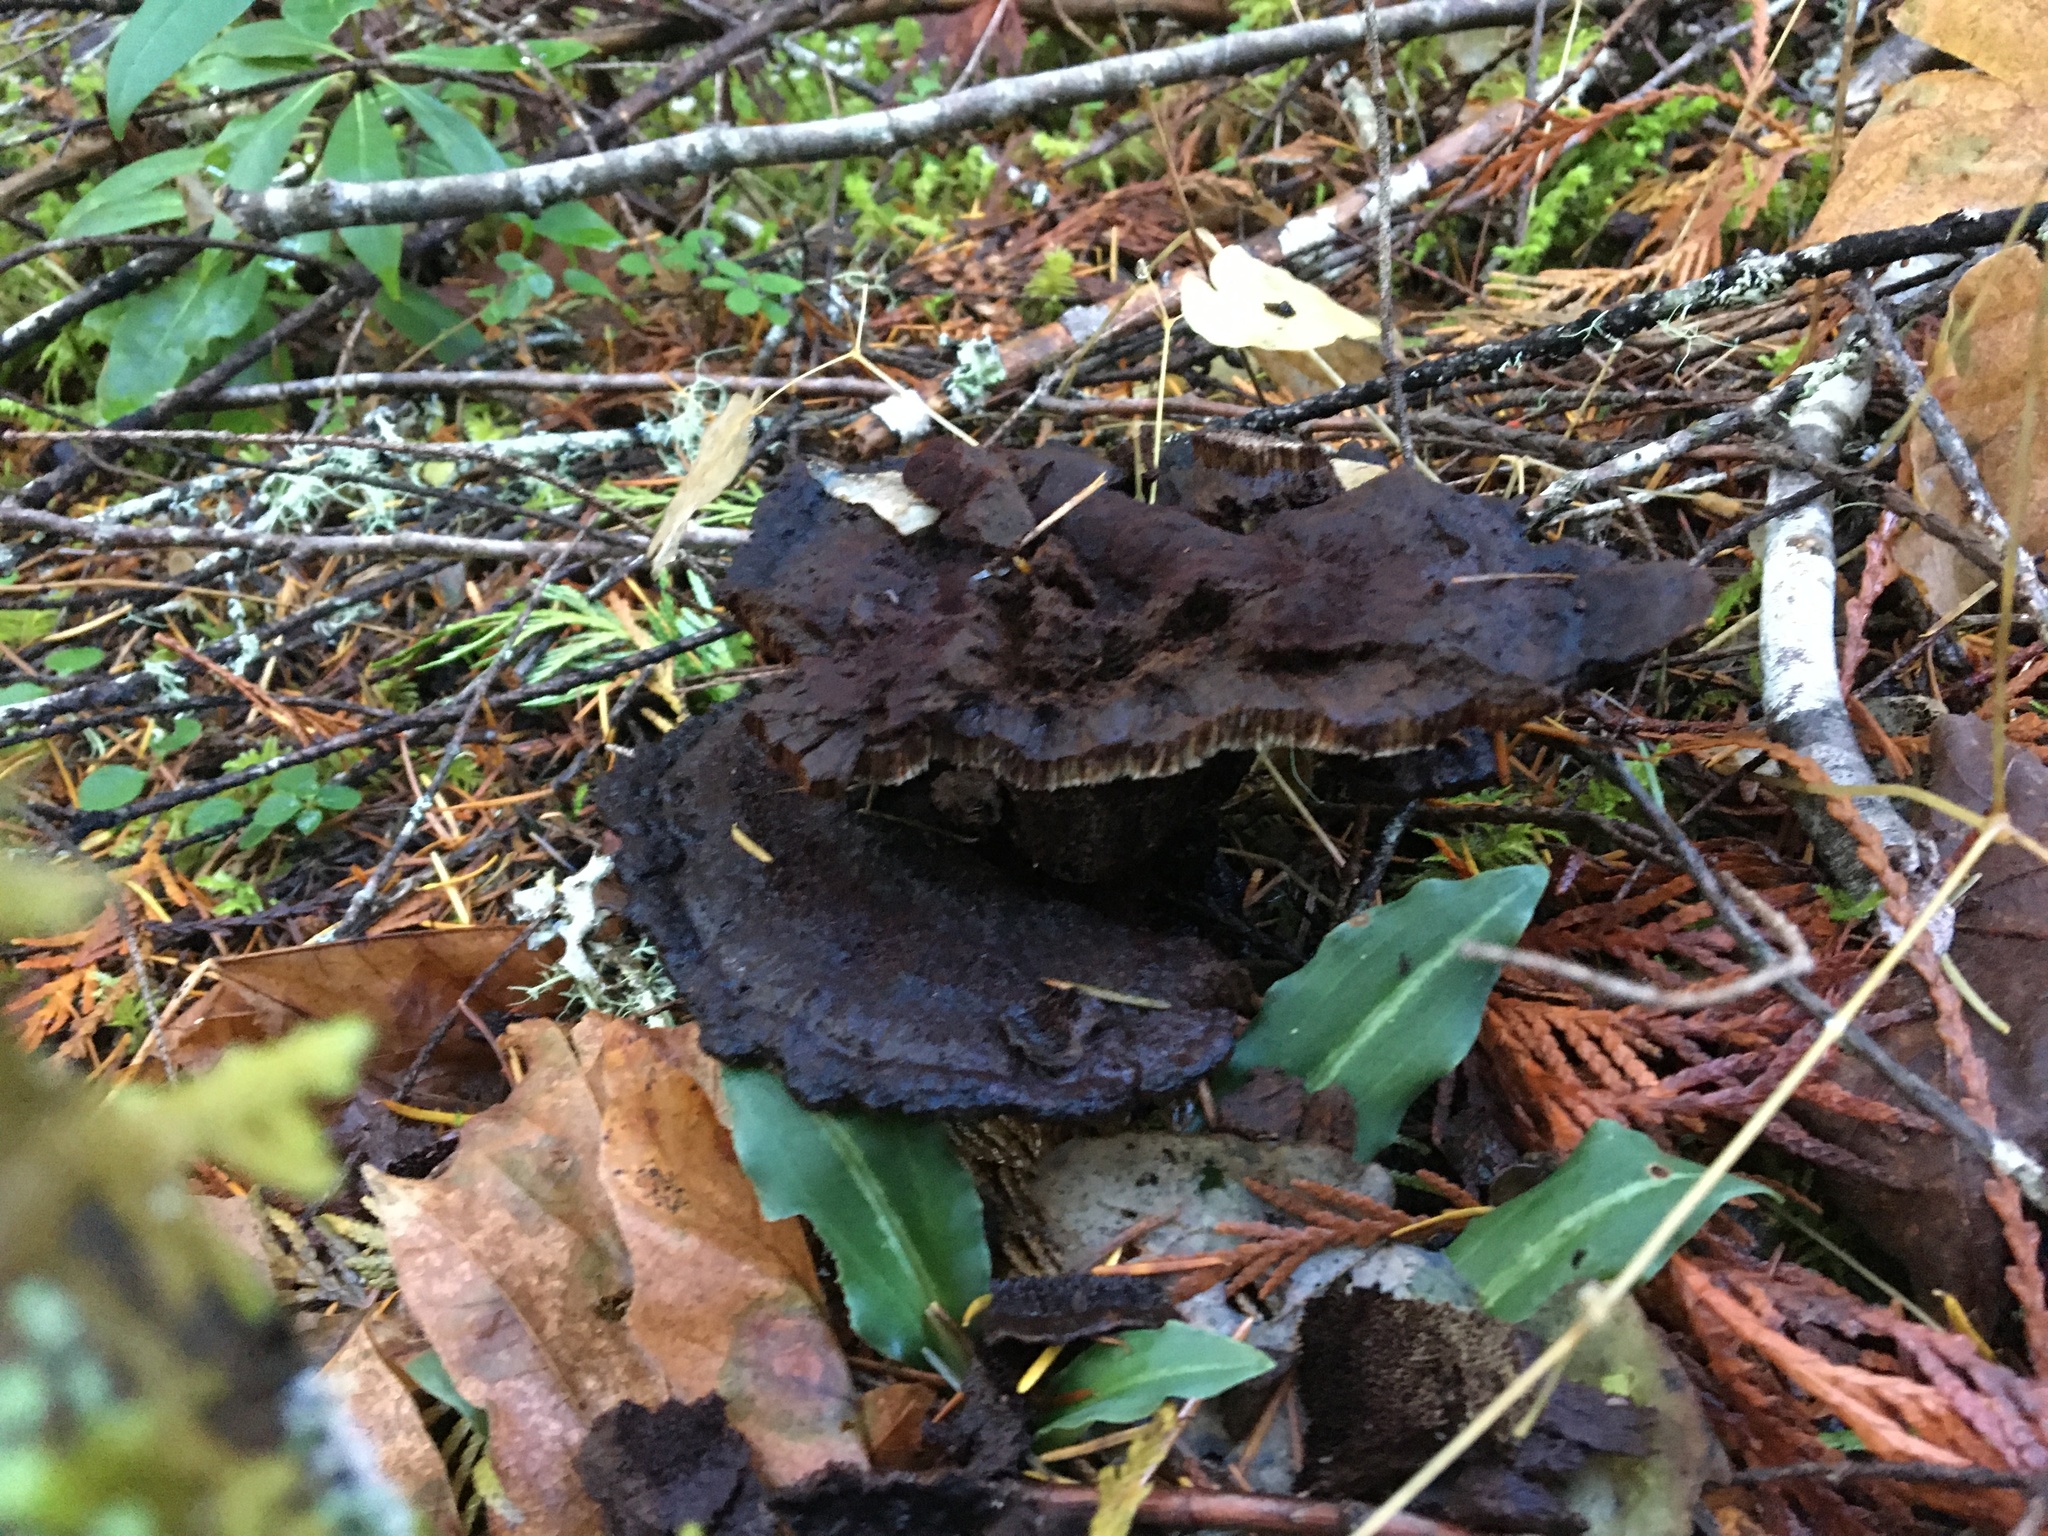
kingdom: Fungi
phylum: Basidiomycota
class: Agaricomycetes
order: Polyporales
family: Laetiporaceae
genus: Phaeolus
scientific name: Phaeolus schweinitzii
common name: Dyer's mazegill
